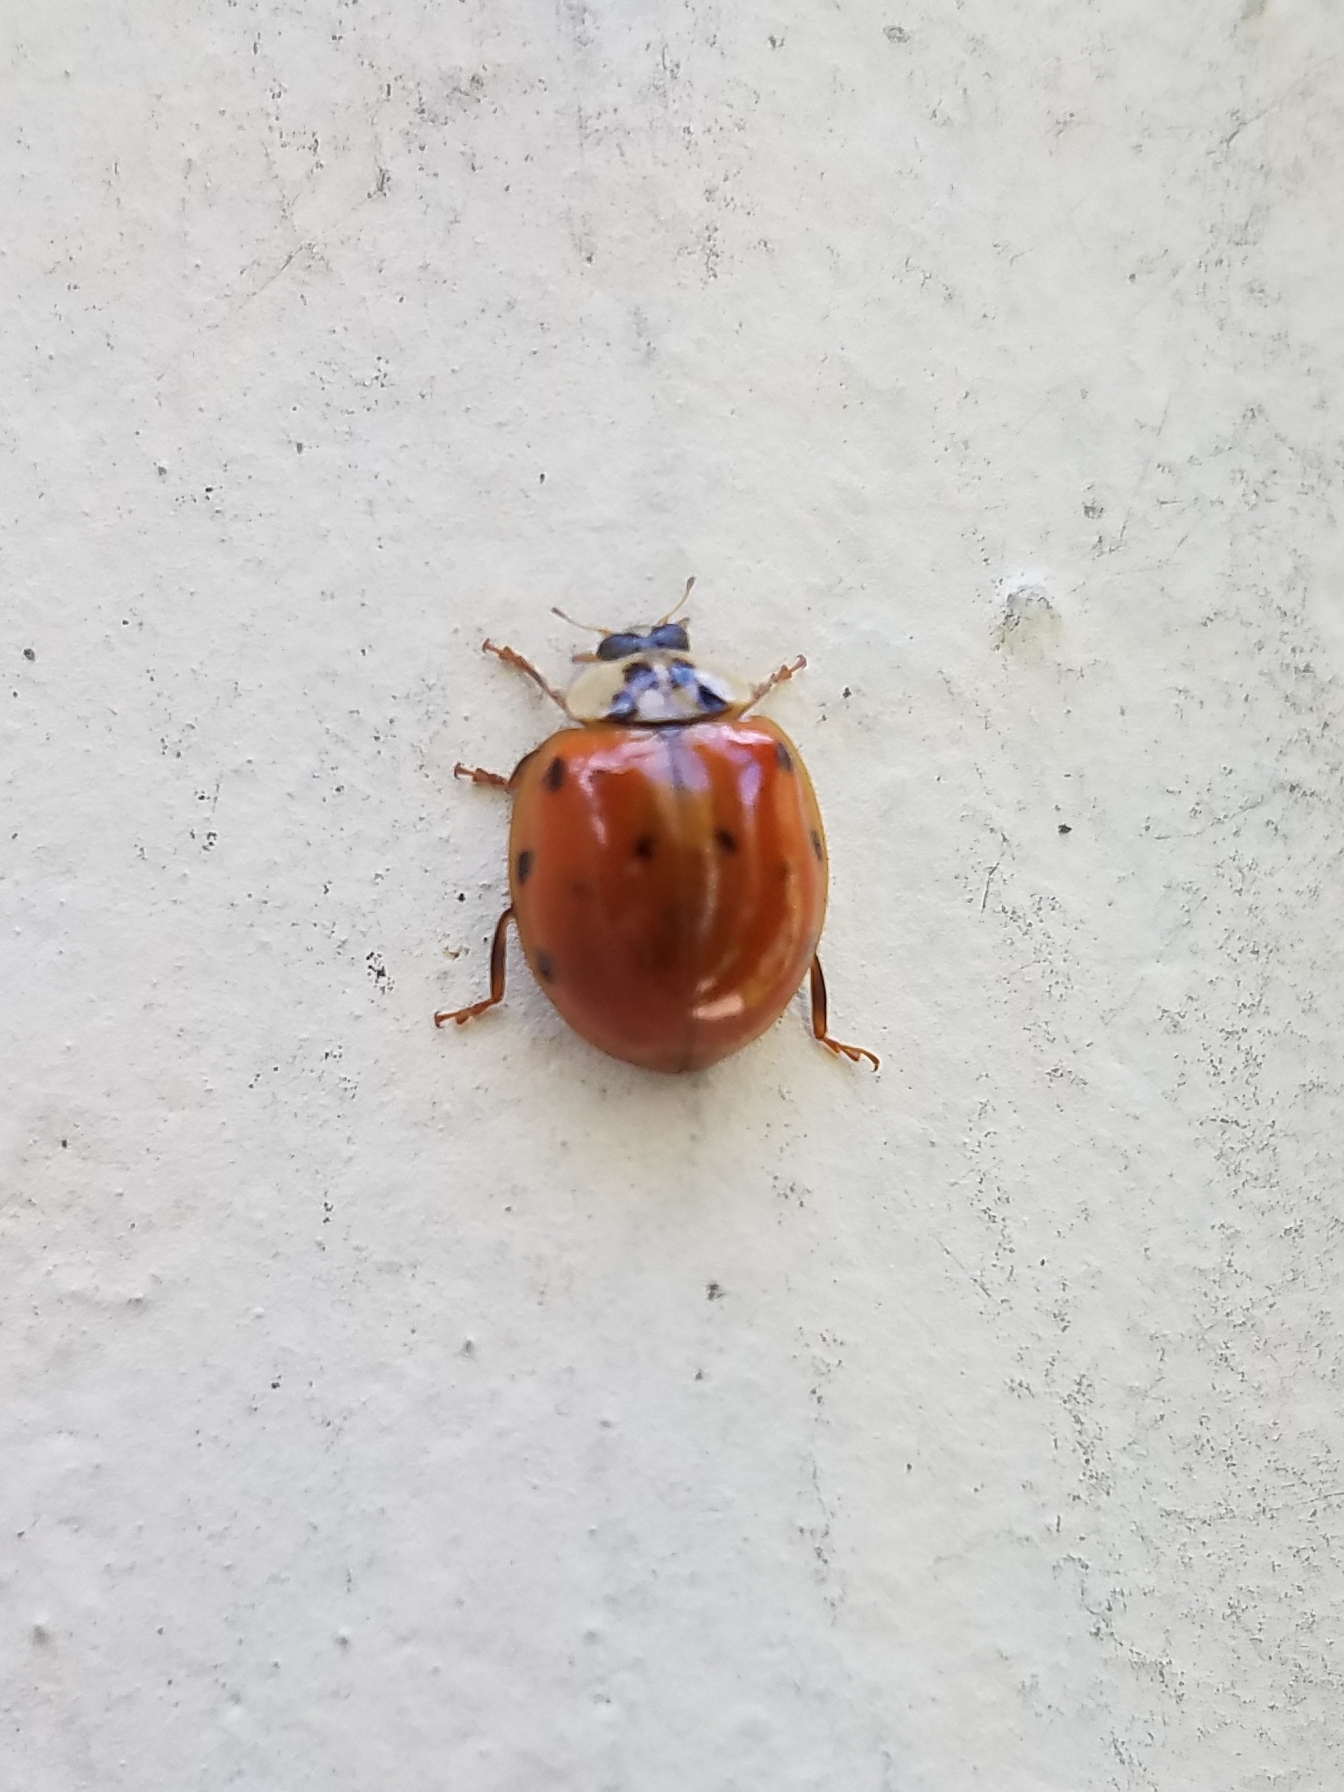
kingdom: Animalia
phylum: Arthropoda
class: Insecta
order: Coleoptera
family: Coccinellidae
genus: Harmonia
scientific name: Harmonia axyridis
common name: Harlequin ladybird
